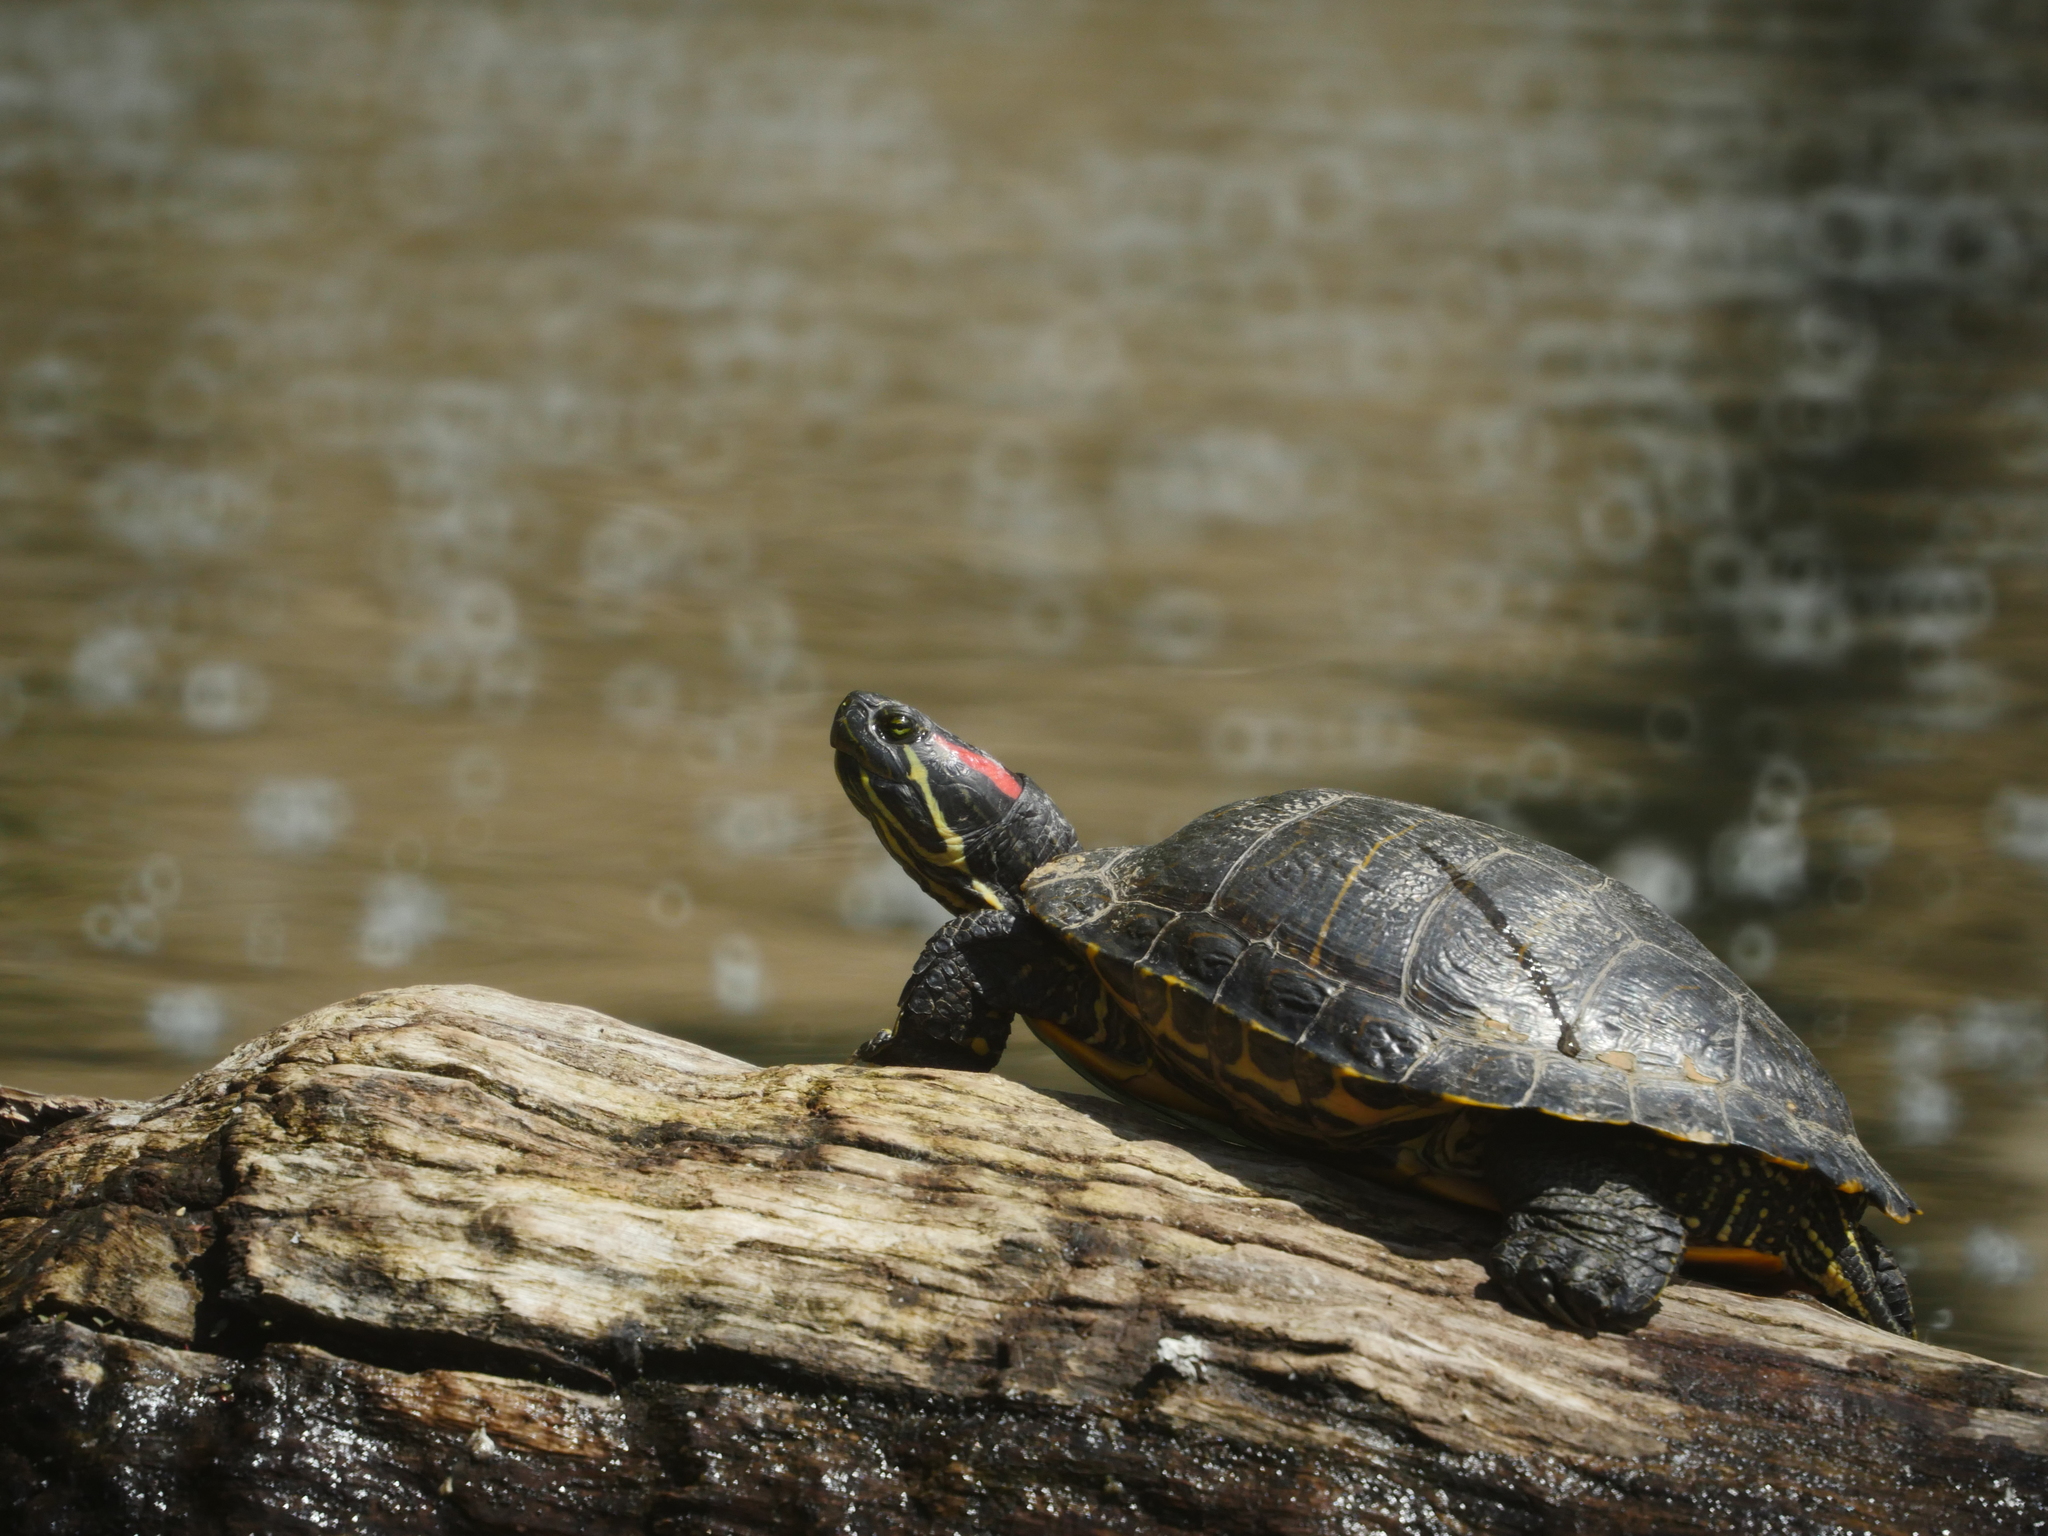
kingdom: Animalia
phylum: Chordata
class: Testudines
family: Emydidae
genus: Trachemys
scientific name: Trachemys scripta
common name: Slider
